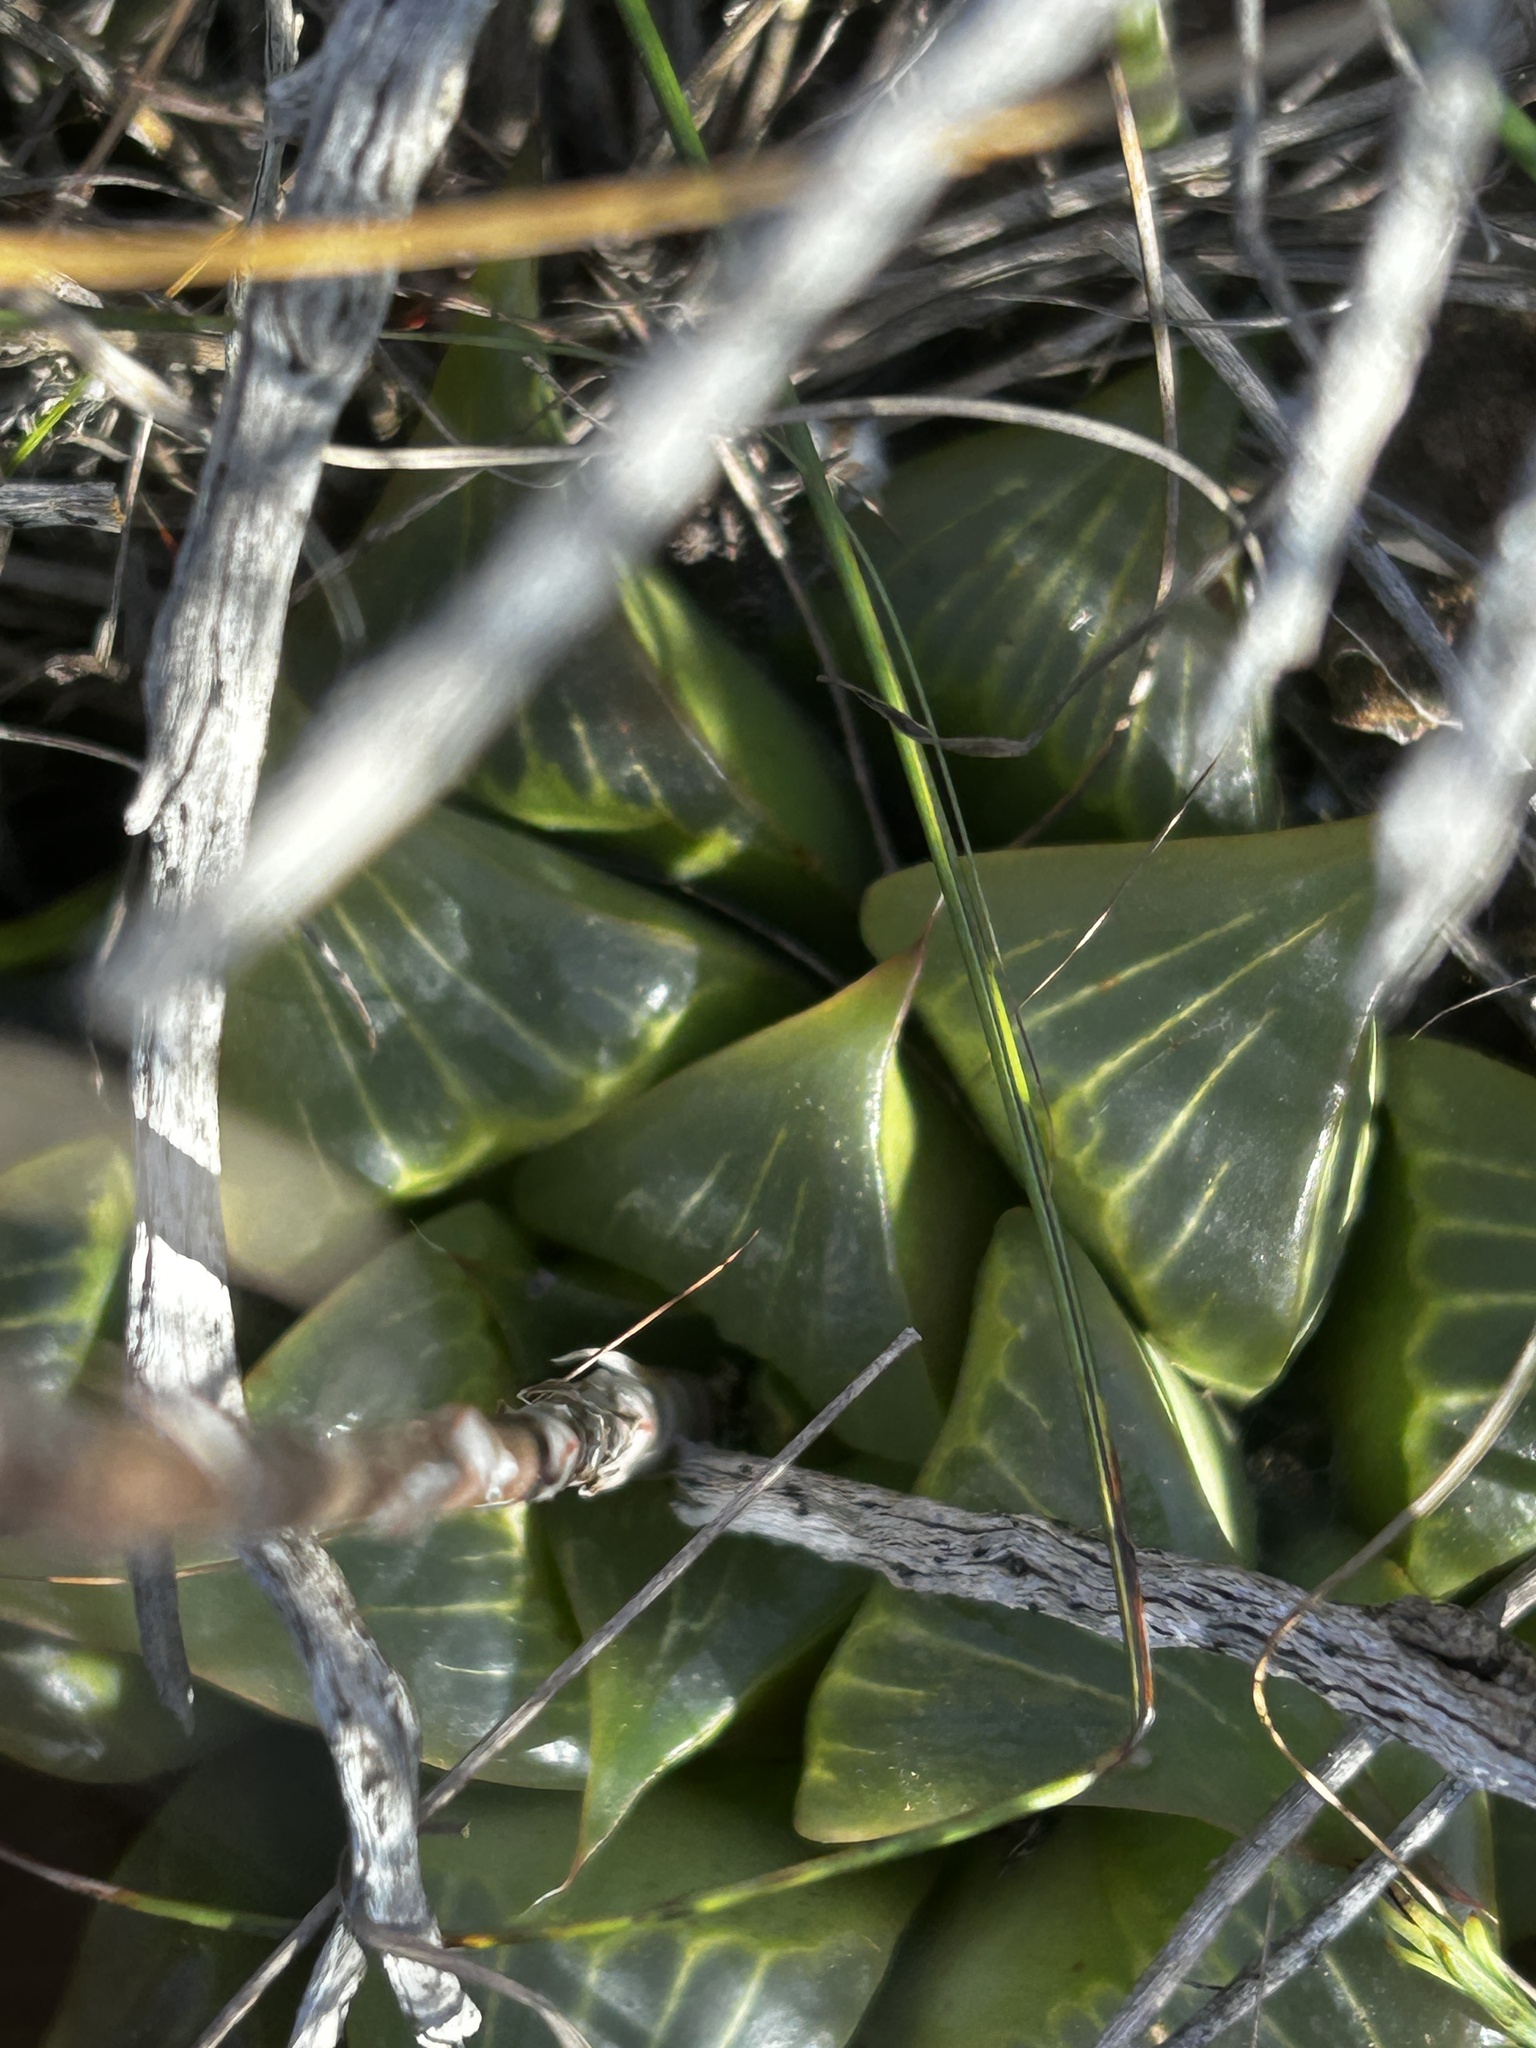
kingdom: Plantae
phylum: Tracheophyta
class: Liliopsida
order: Asparagales
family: Asphodelaceae
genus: Haworthia
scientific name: Haworthia retusa
